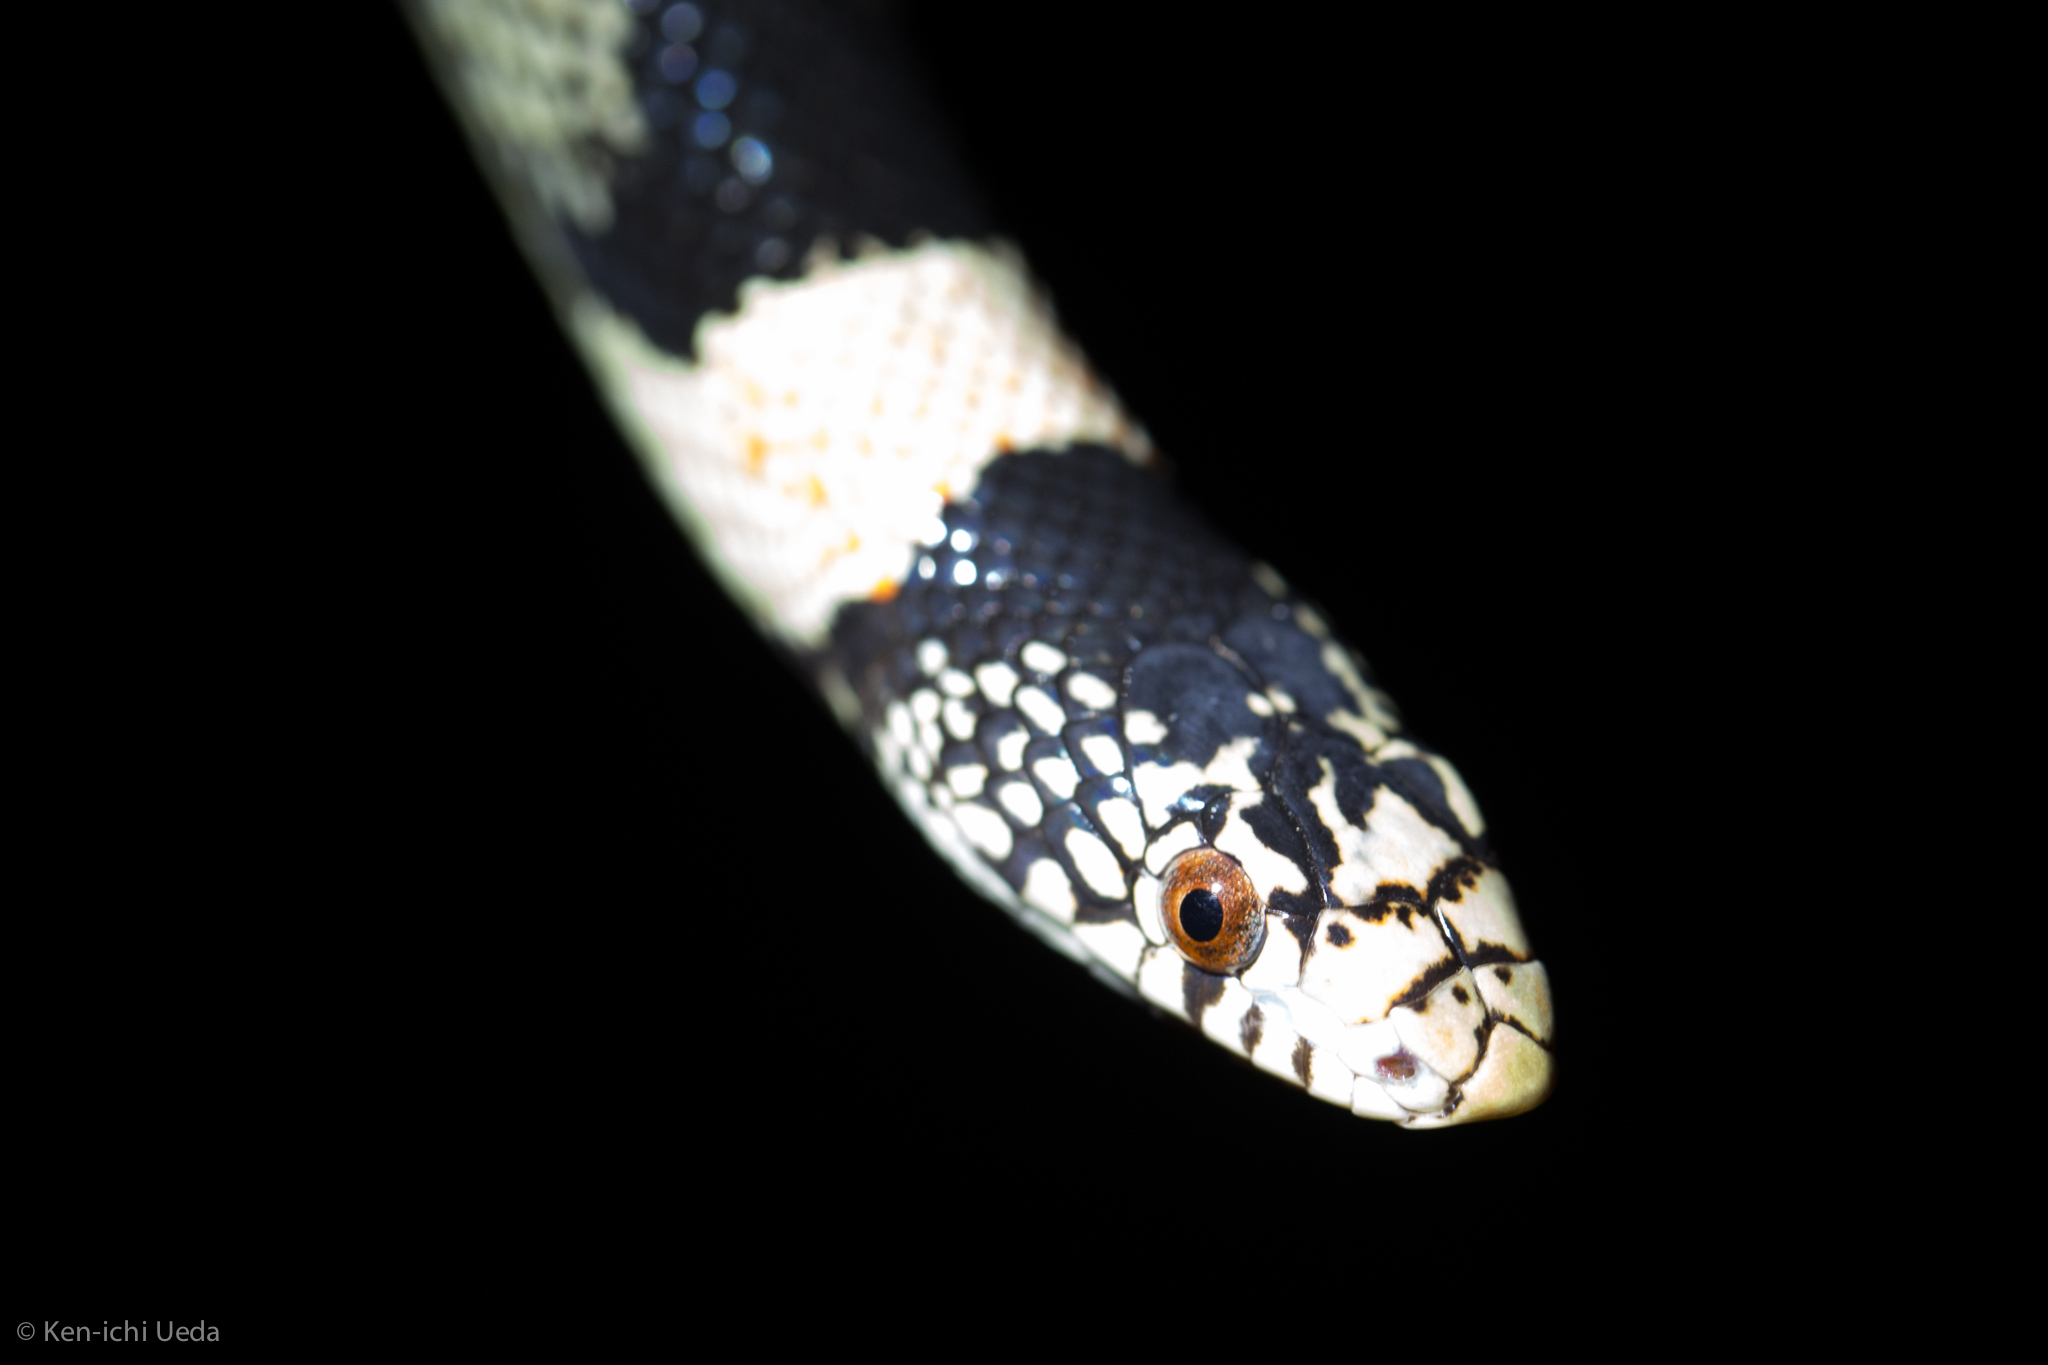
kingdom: Animalia
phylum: Chordata
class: Squamata
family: Colubridae
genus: Rhinocheilus
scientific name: Rhinocheilus lecontei
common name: Longnose snake
